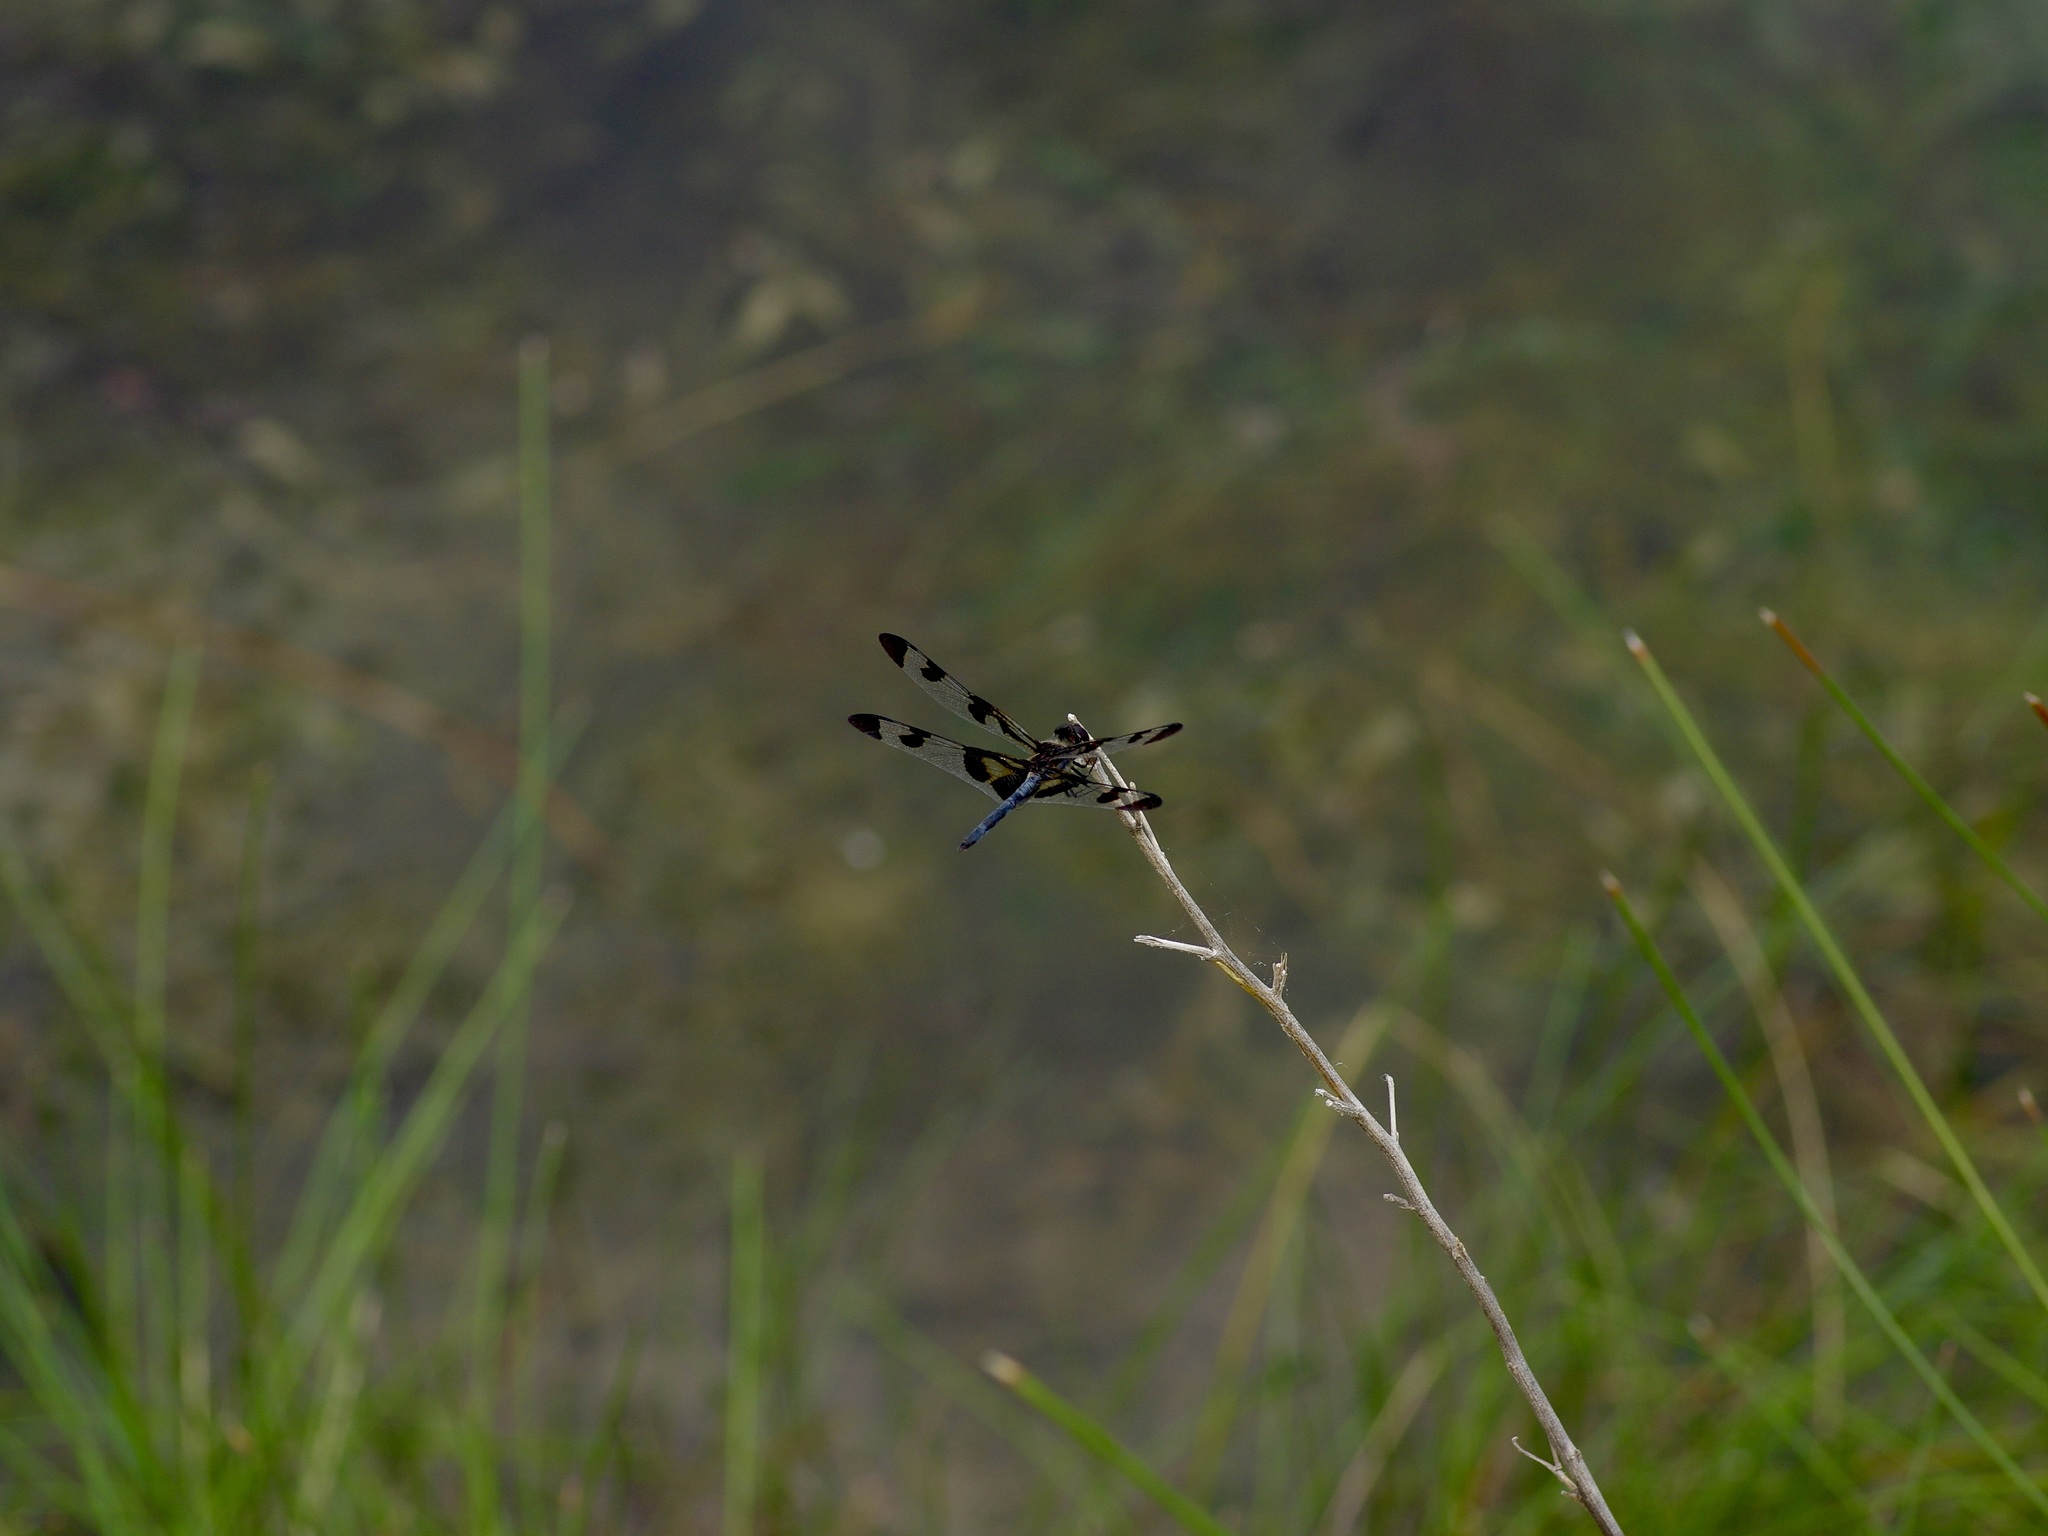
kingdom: Animalia
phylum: Arthropoda
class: Insecta
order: Odonata
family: Libellulidae
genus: Celithemis
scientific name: Celithemis fasciata
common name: Banded pennant
